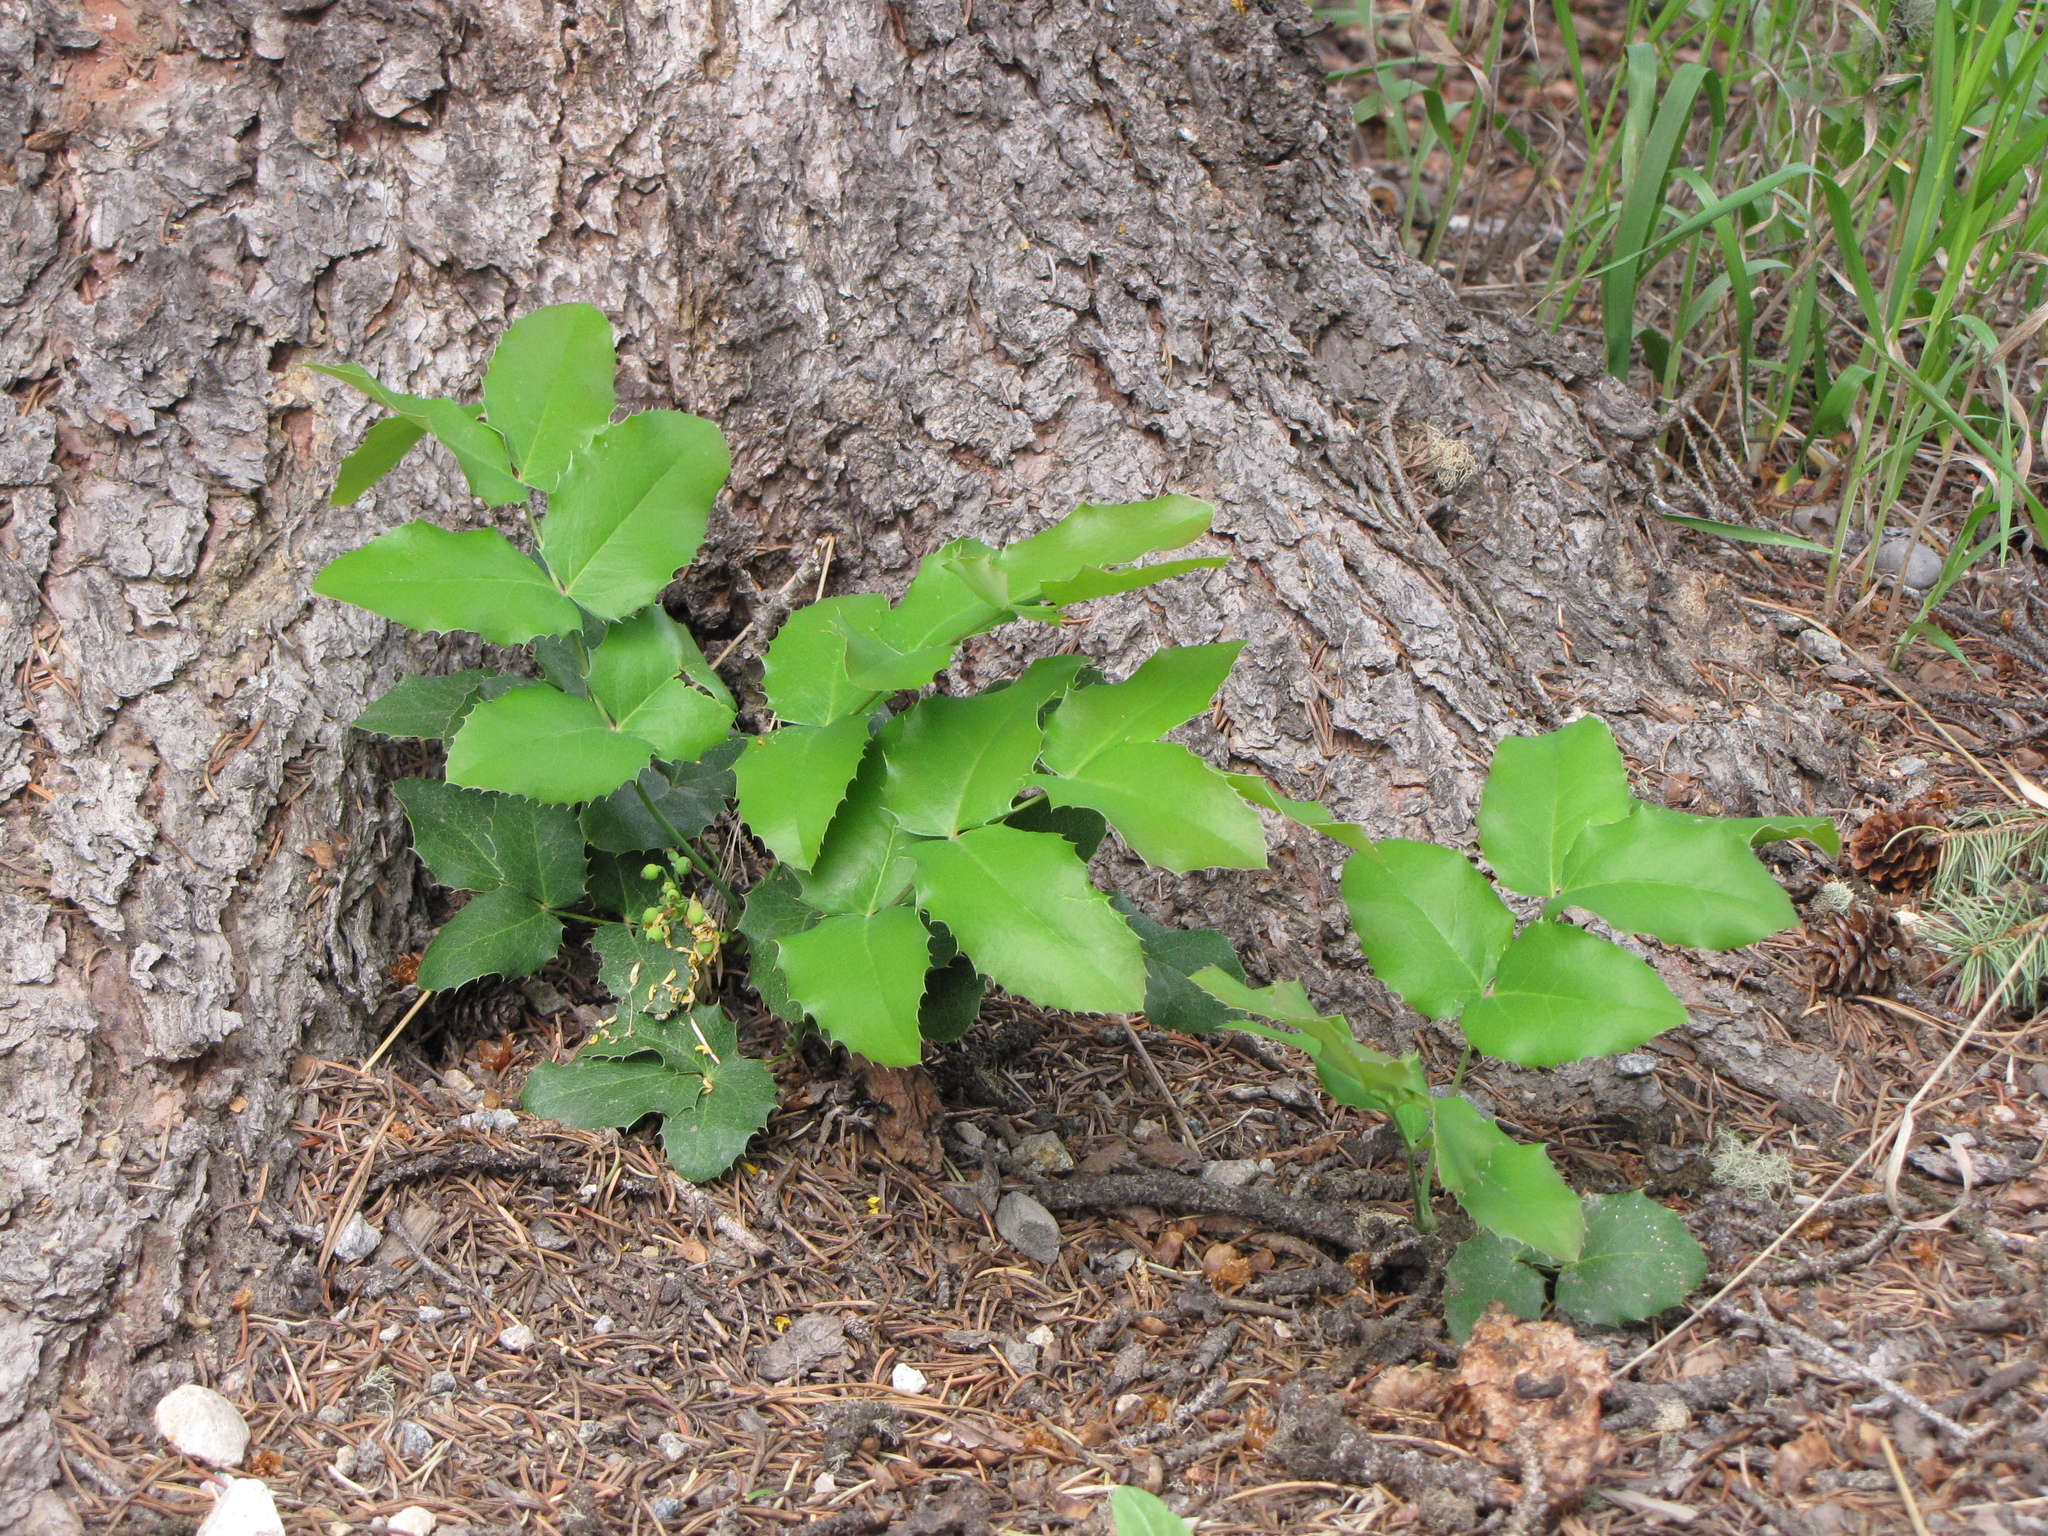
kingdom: Plantae
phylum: Tracheophyta
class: Magnoliopsida
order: Ranunculales
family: Berberidaceae
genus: Mahonia
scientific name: Mahonia repens
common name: Creeping oregon-grape
